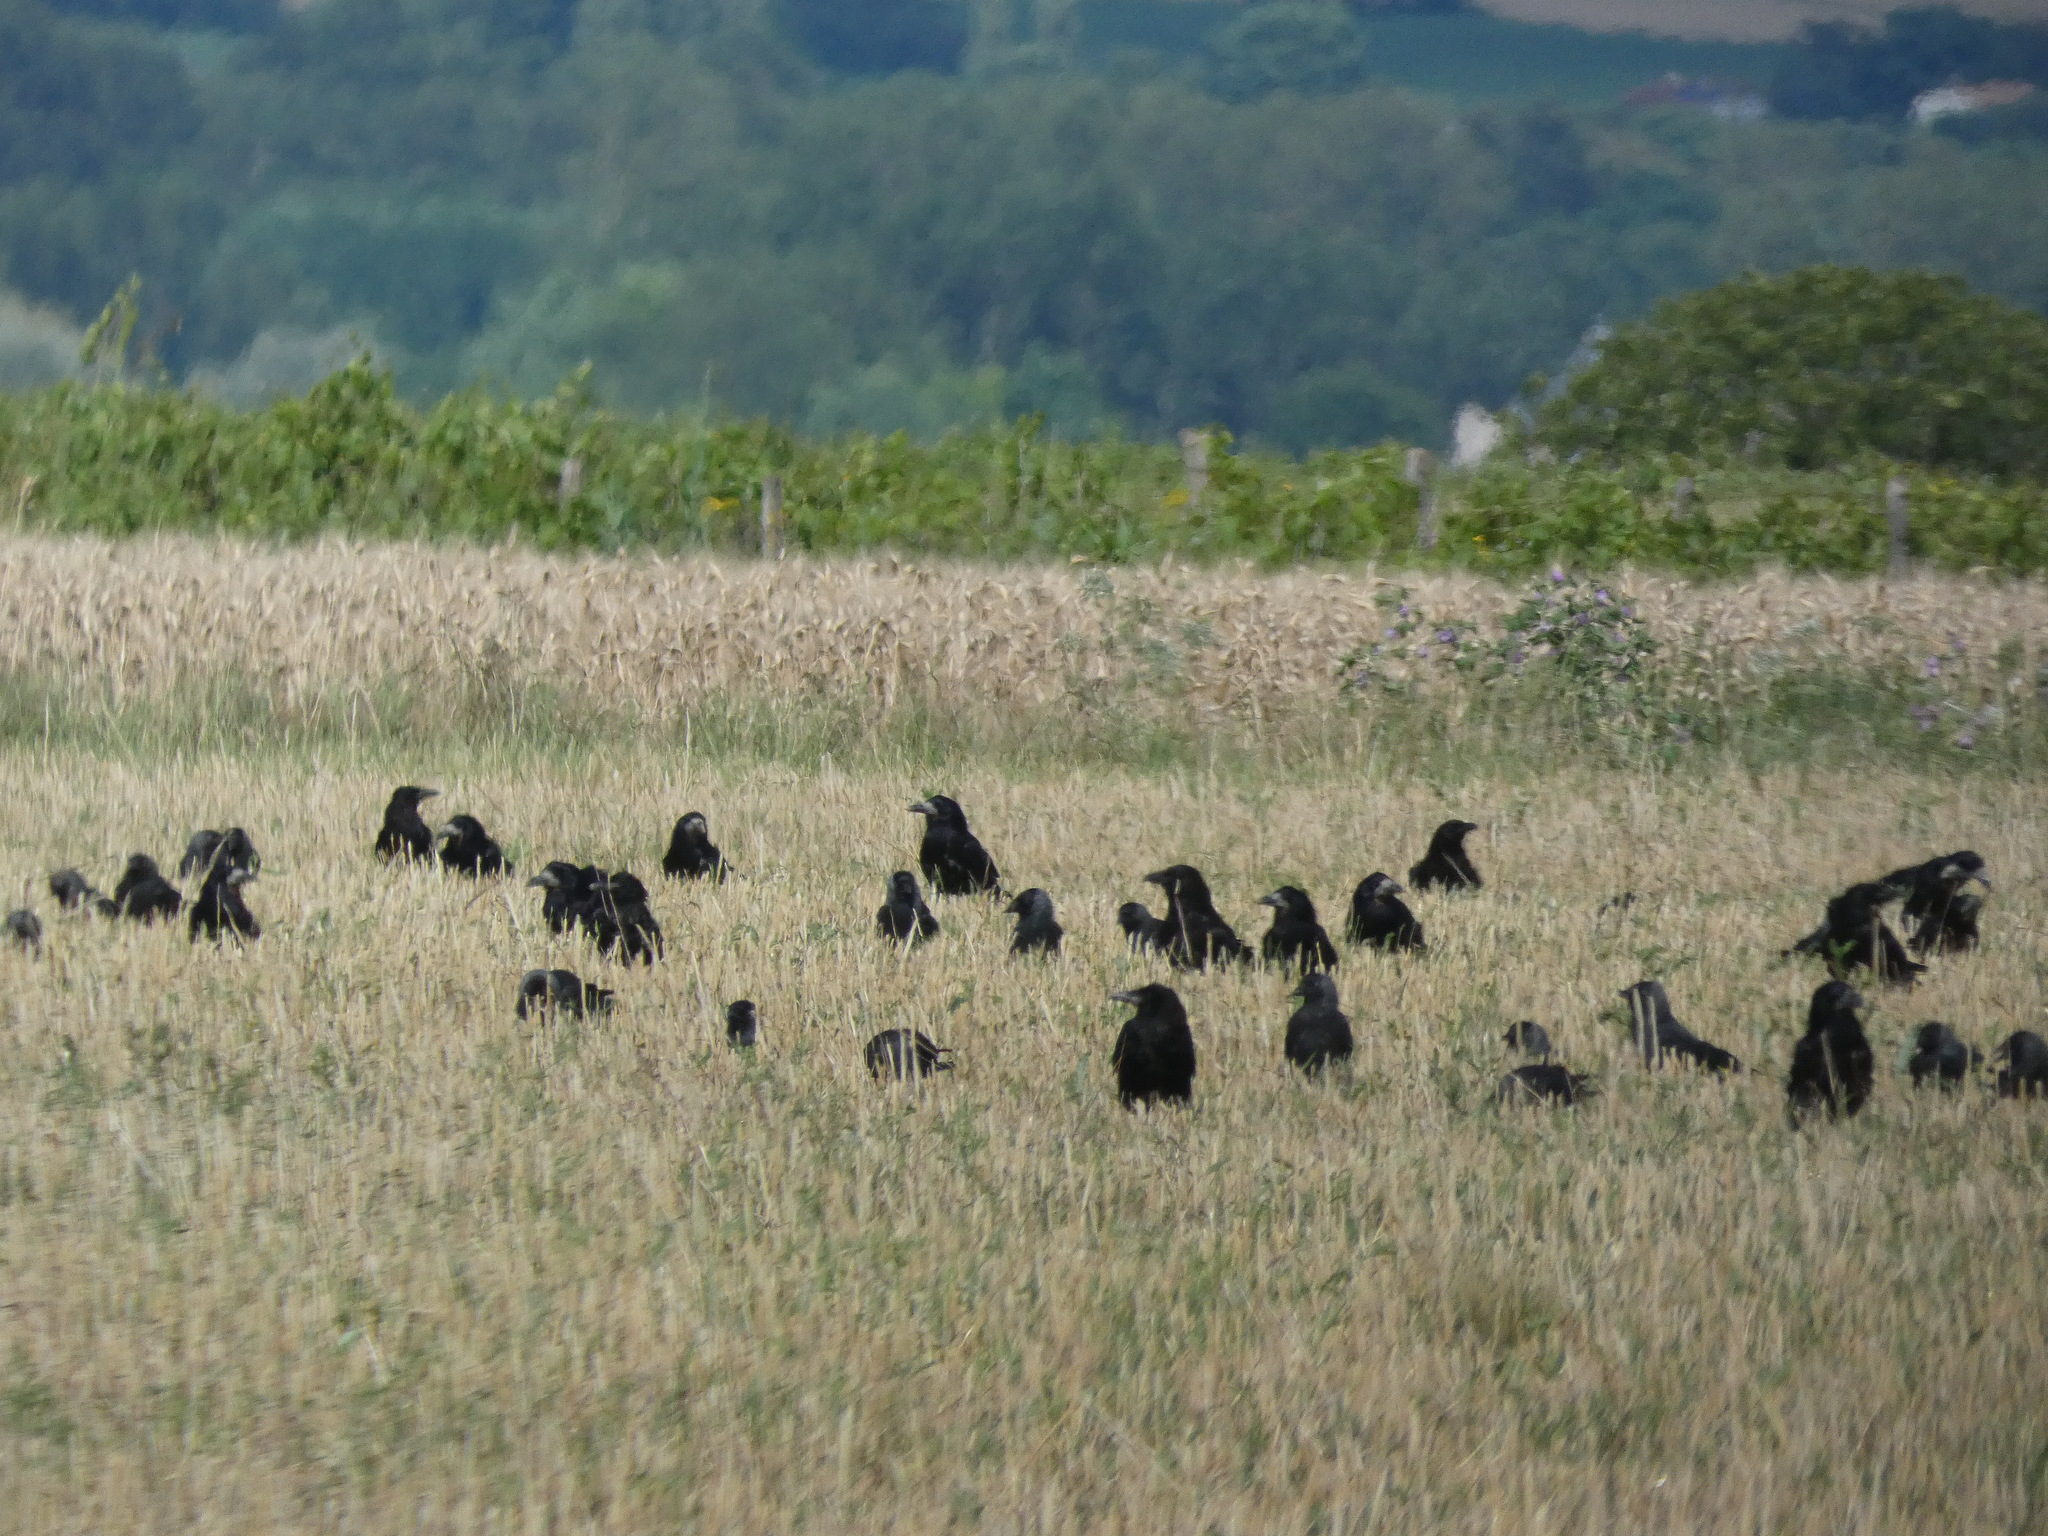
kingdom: Animalia
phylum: Chordata
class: Aves
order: Passeriformes
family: Corvidae
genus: Corvus
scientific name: Corvus frugilegus
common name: Rook
